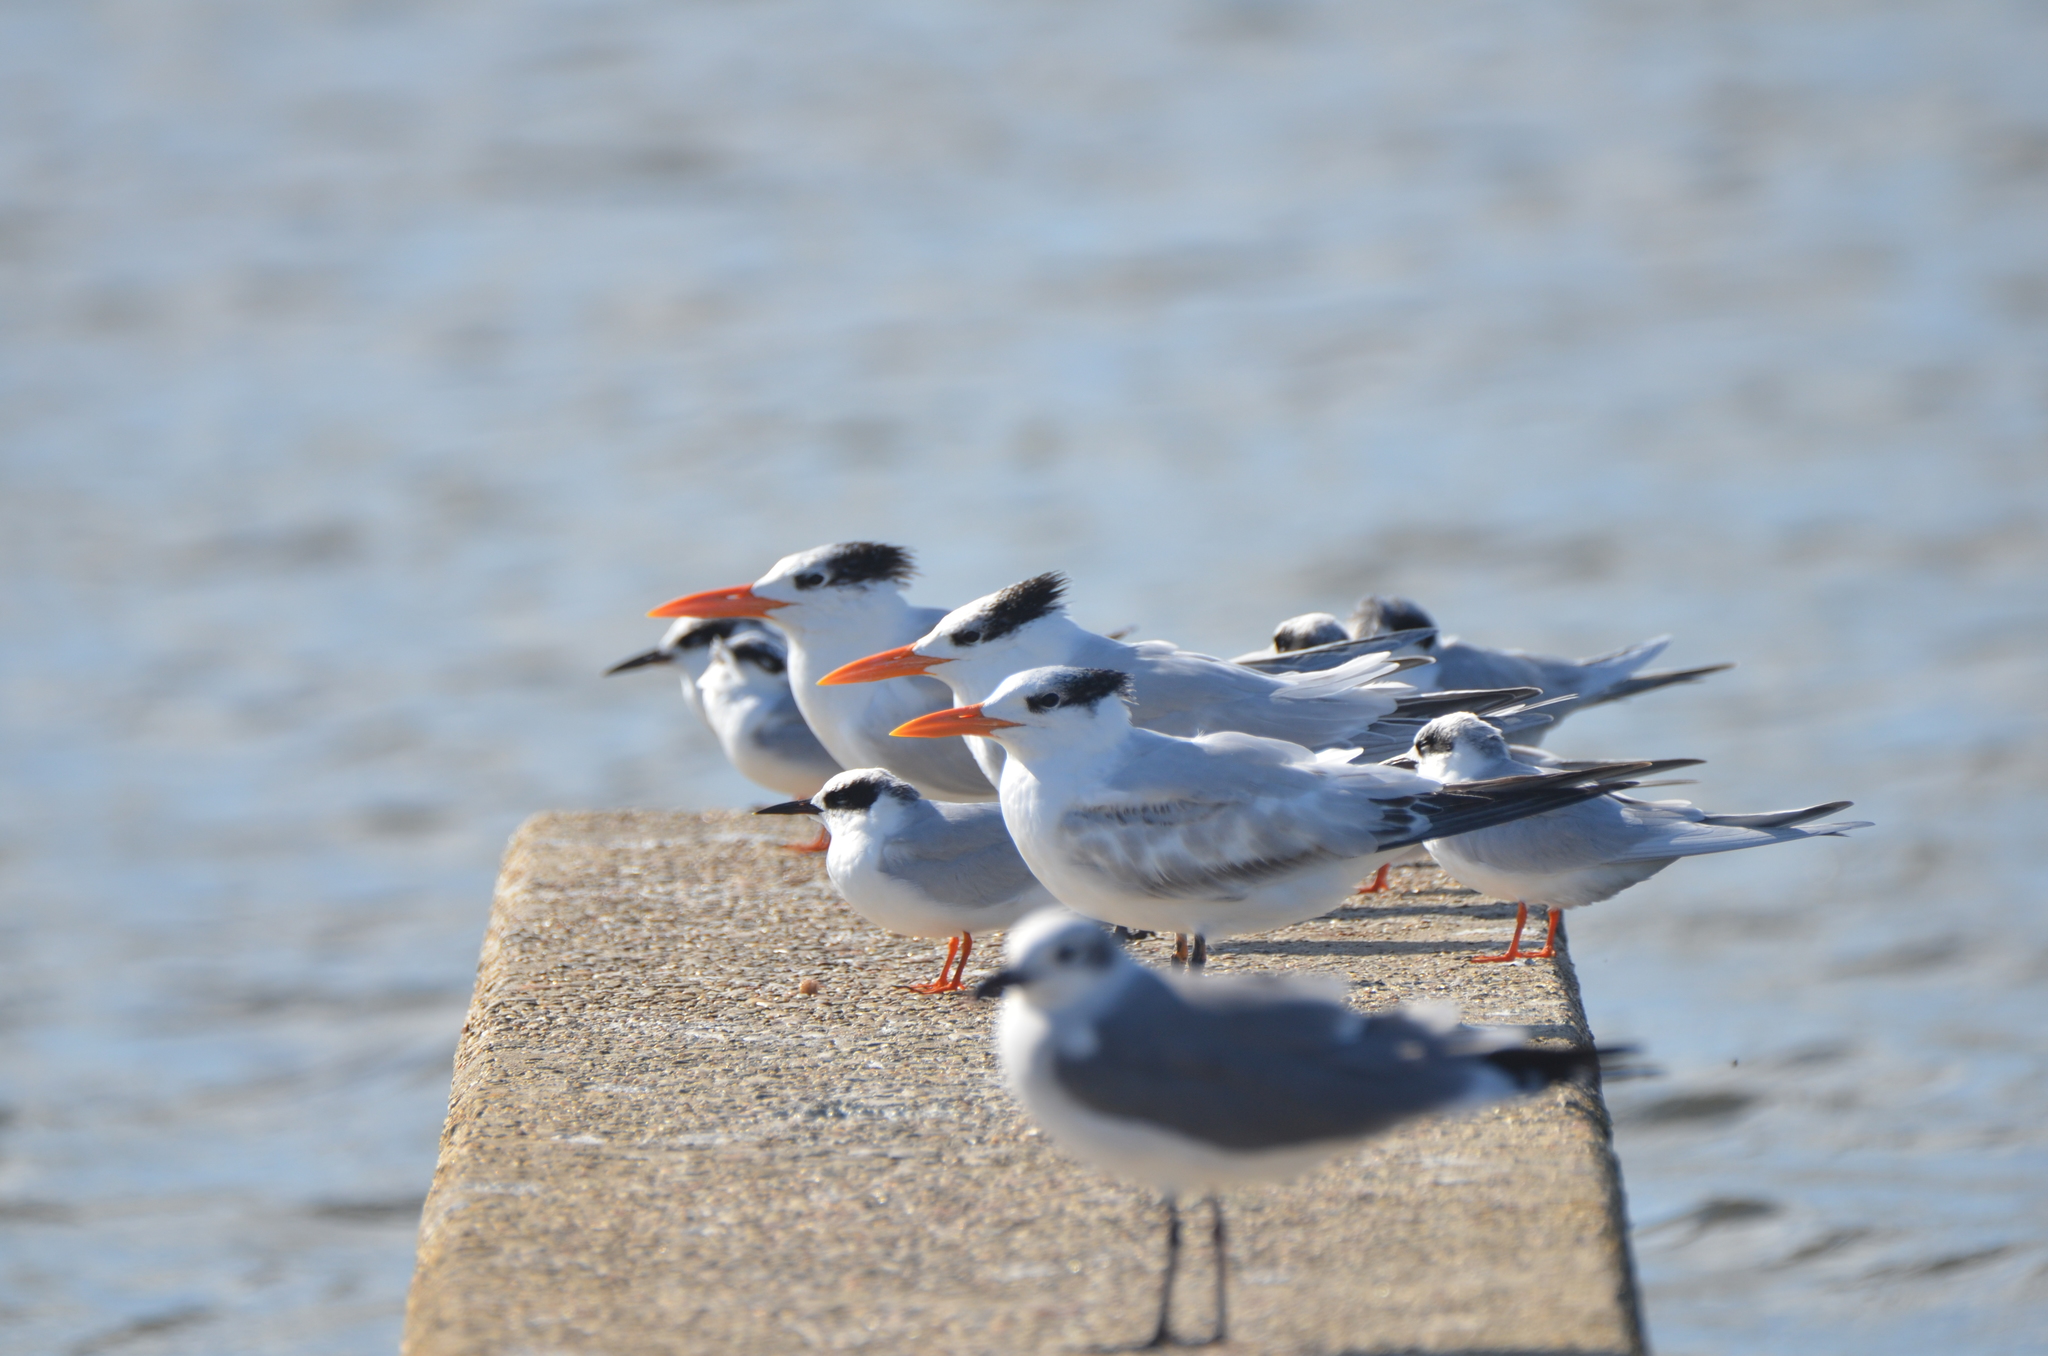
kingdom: Animalia
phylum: Chordata
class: Aves
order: Charadriiformes
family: Laridae
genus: Thalasseus
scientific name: Thalasseus maximus
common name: Royal tern
